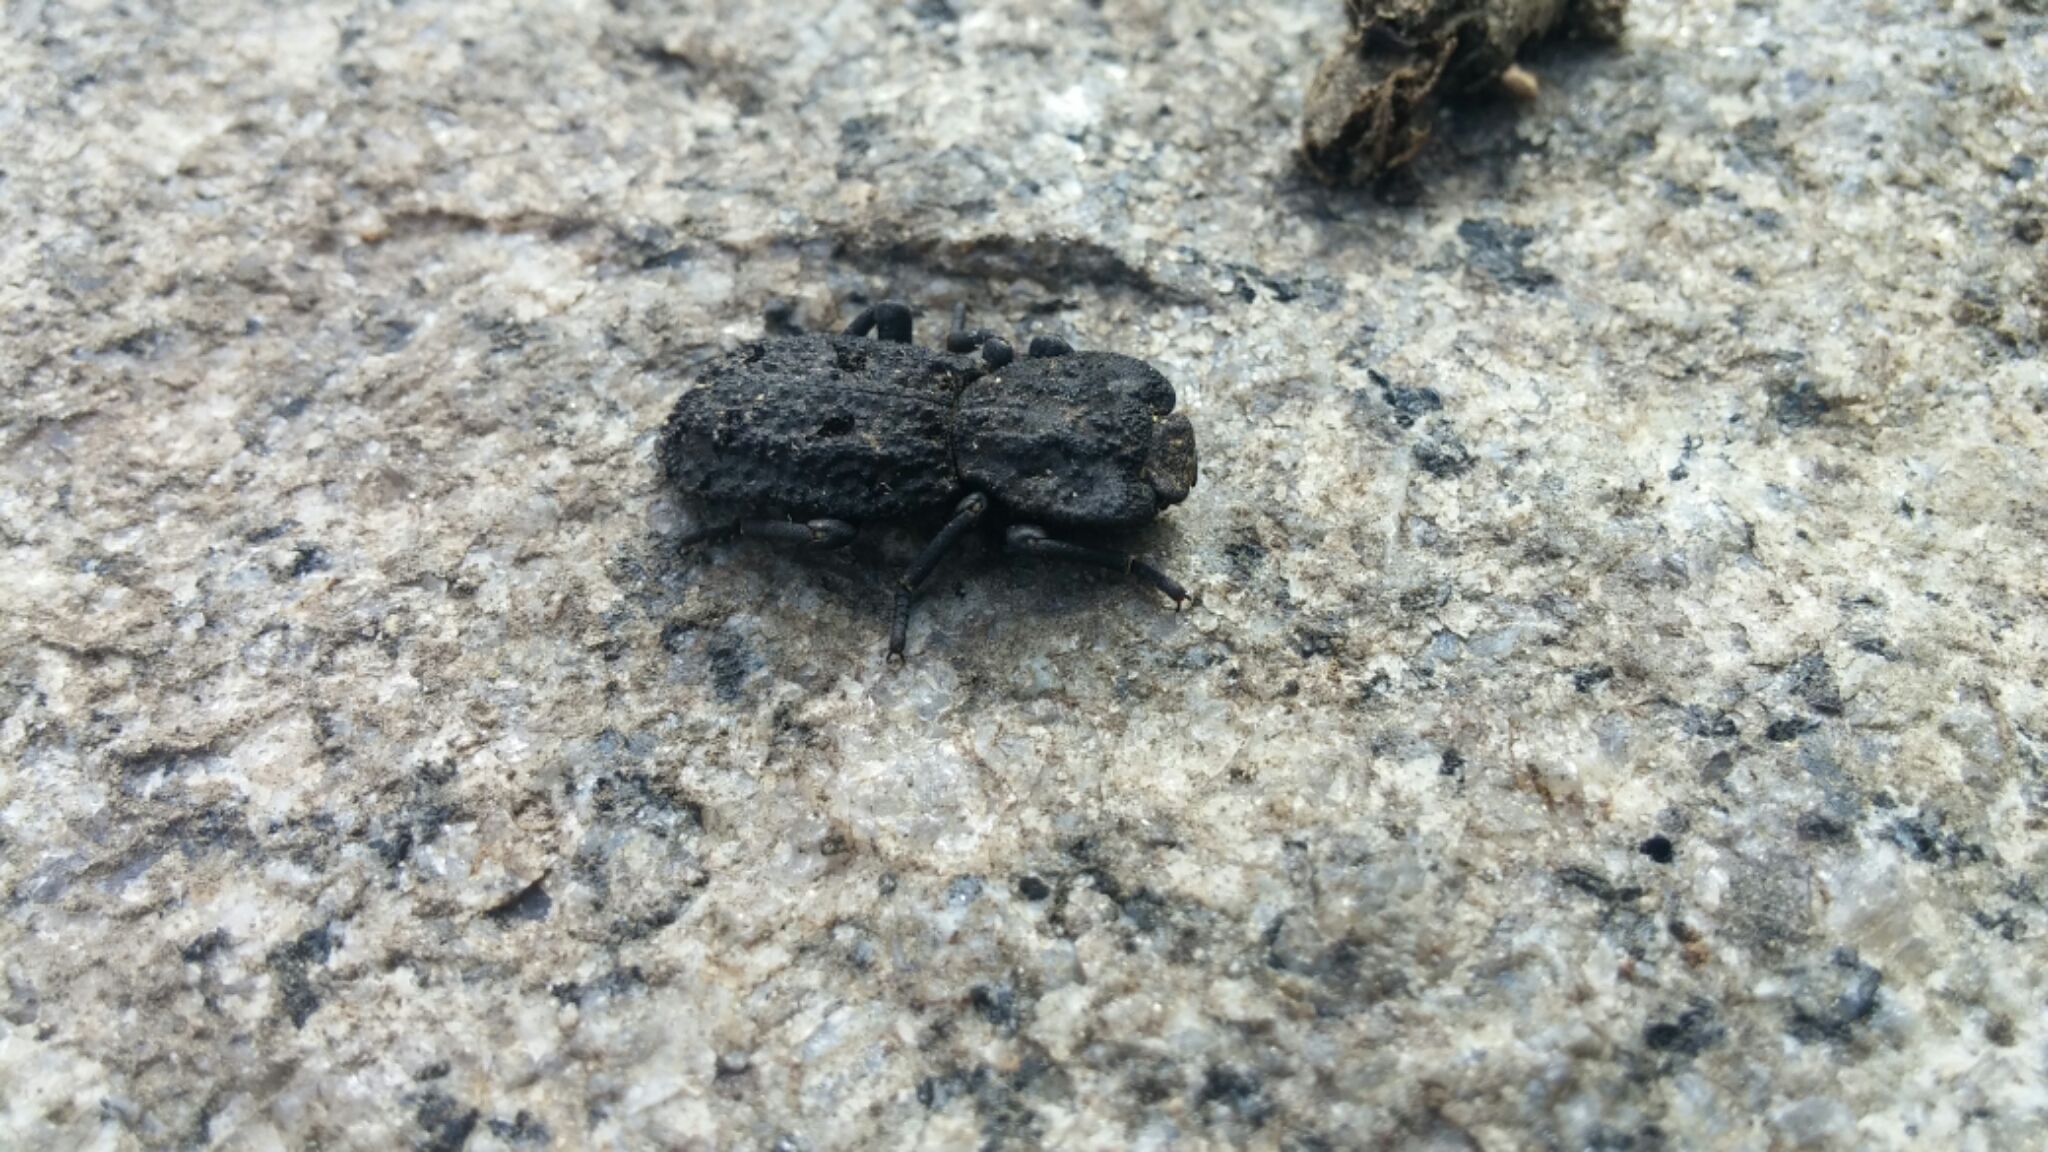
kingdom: Animalia
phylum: Arthropoda
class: Insecta
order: Coleoptera
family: Zopheridae
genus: Phloeodes
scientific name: Phloeodes diabolicus
